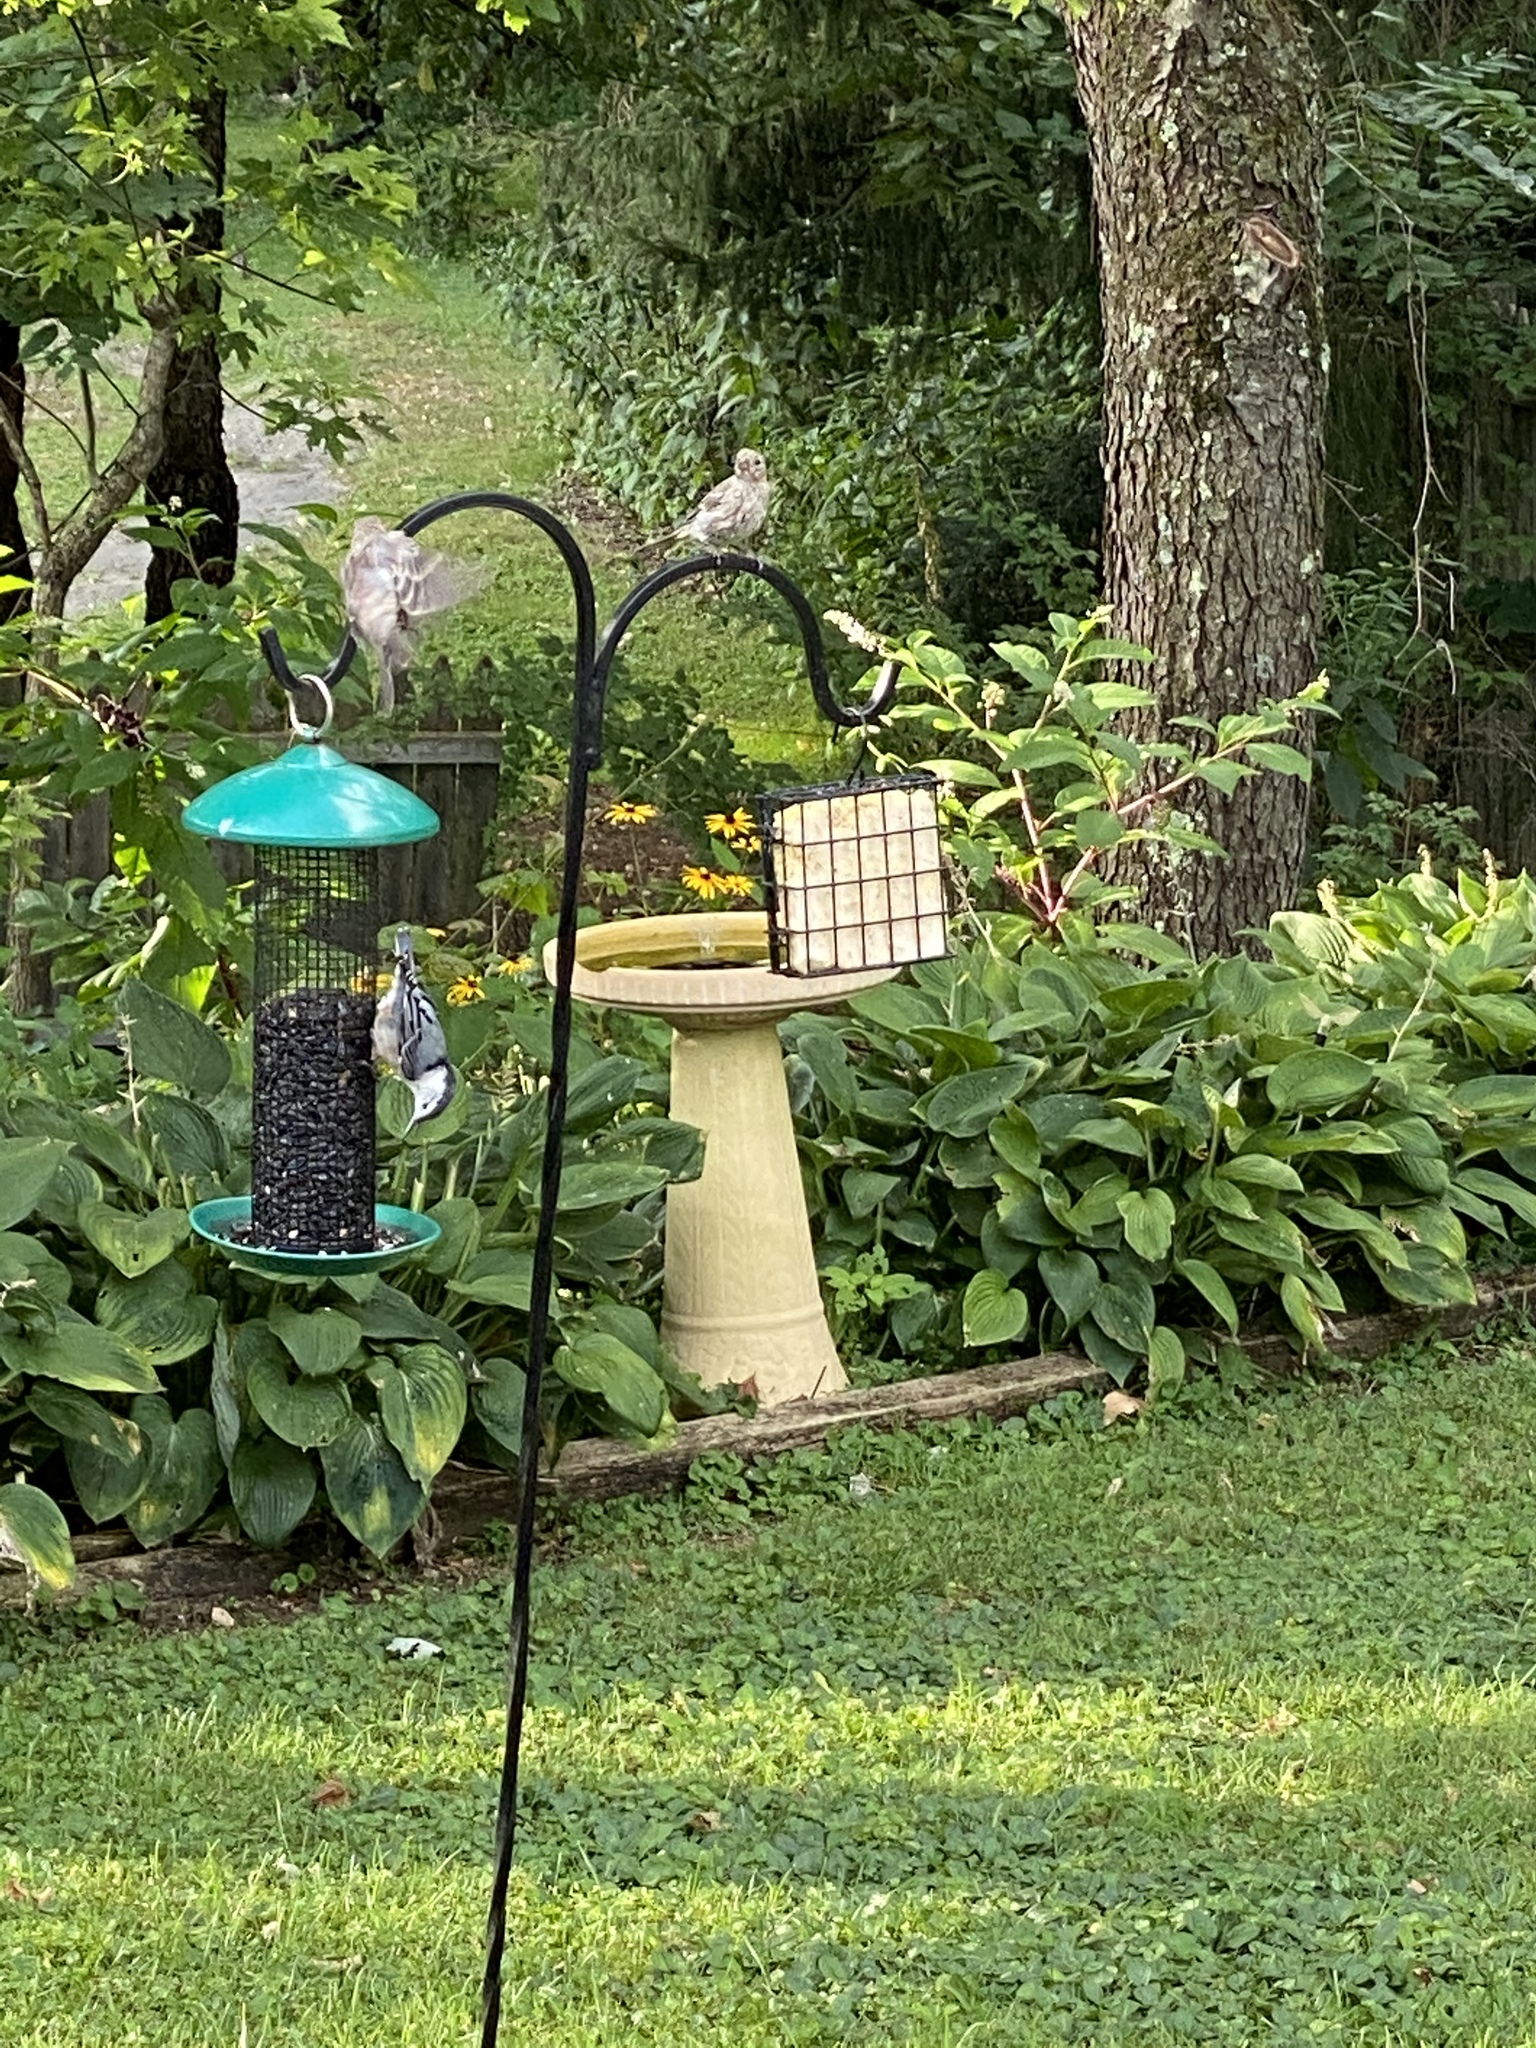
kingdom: Animalia
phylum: Chordata
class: Aves
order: Passeriformes
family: Sittidae
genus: Sitta
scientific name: Sitta carolinensis
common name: White-breasted nuthatch
